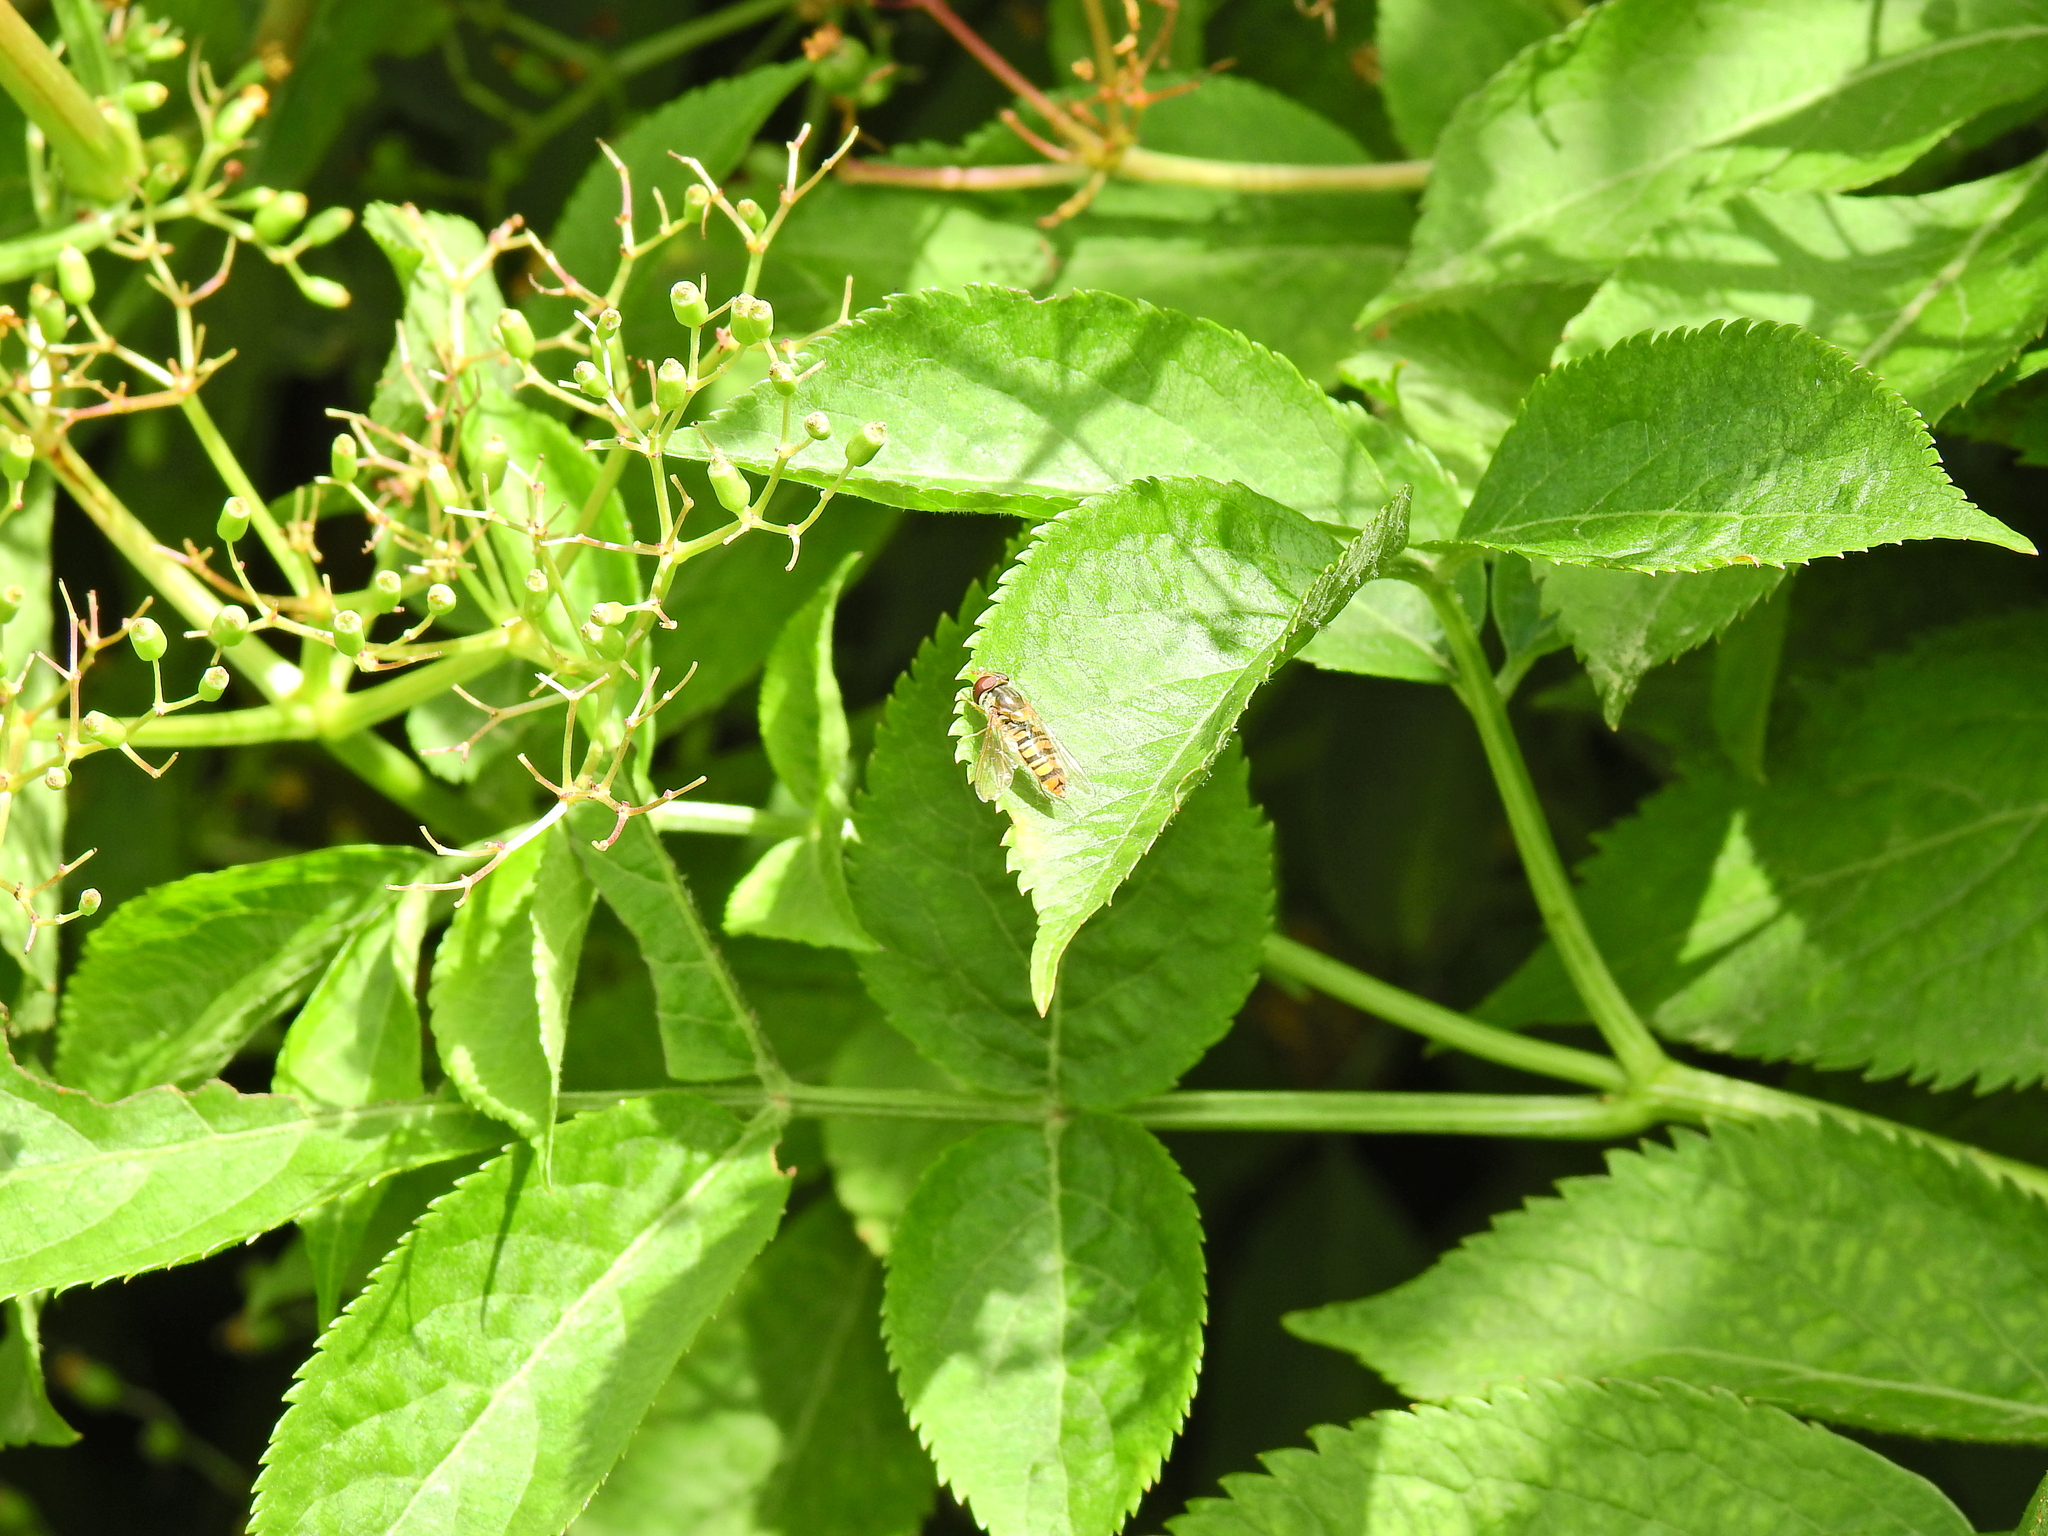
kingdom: Animalia
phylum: Arthropoda
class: Insecta
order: Diptera
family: Syrphidae
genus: Episyrphus
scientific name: Episyrphus balteatus
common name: Marmalade hoverfly
